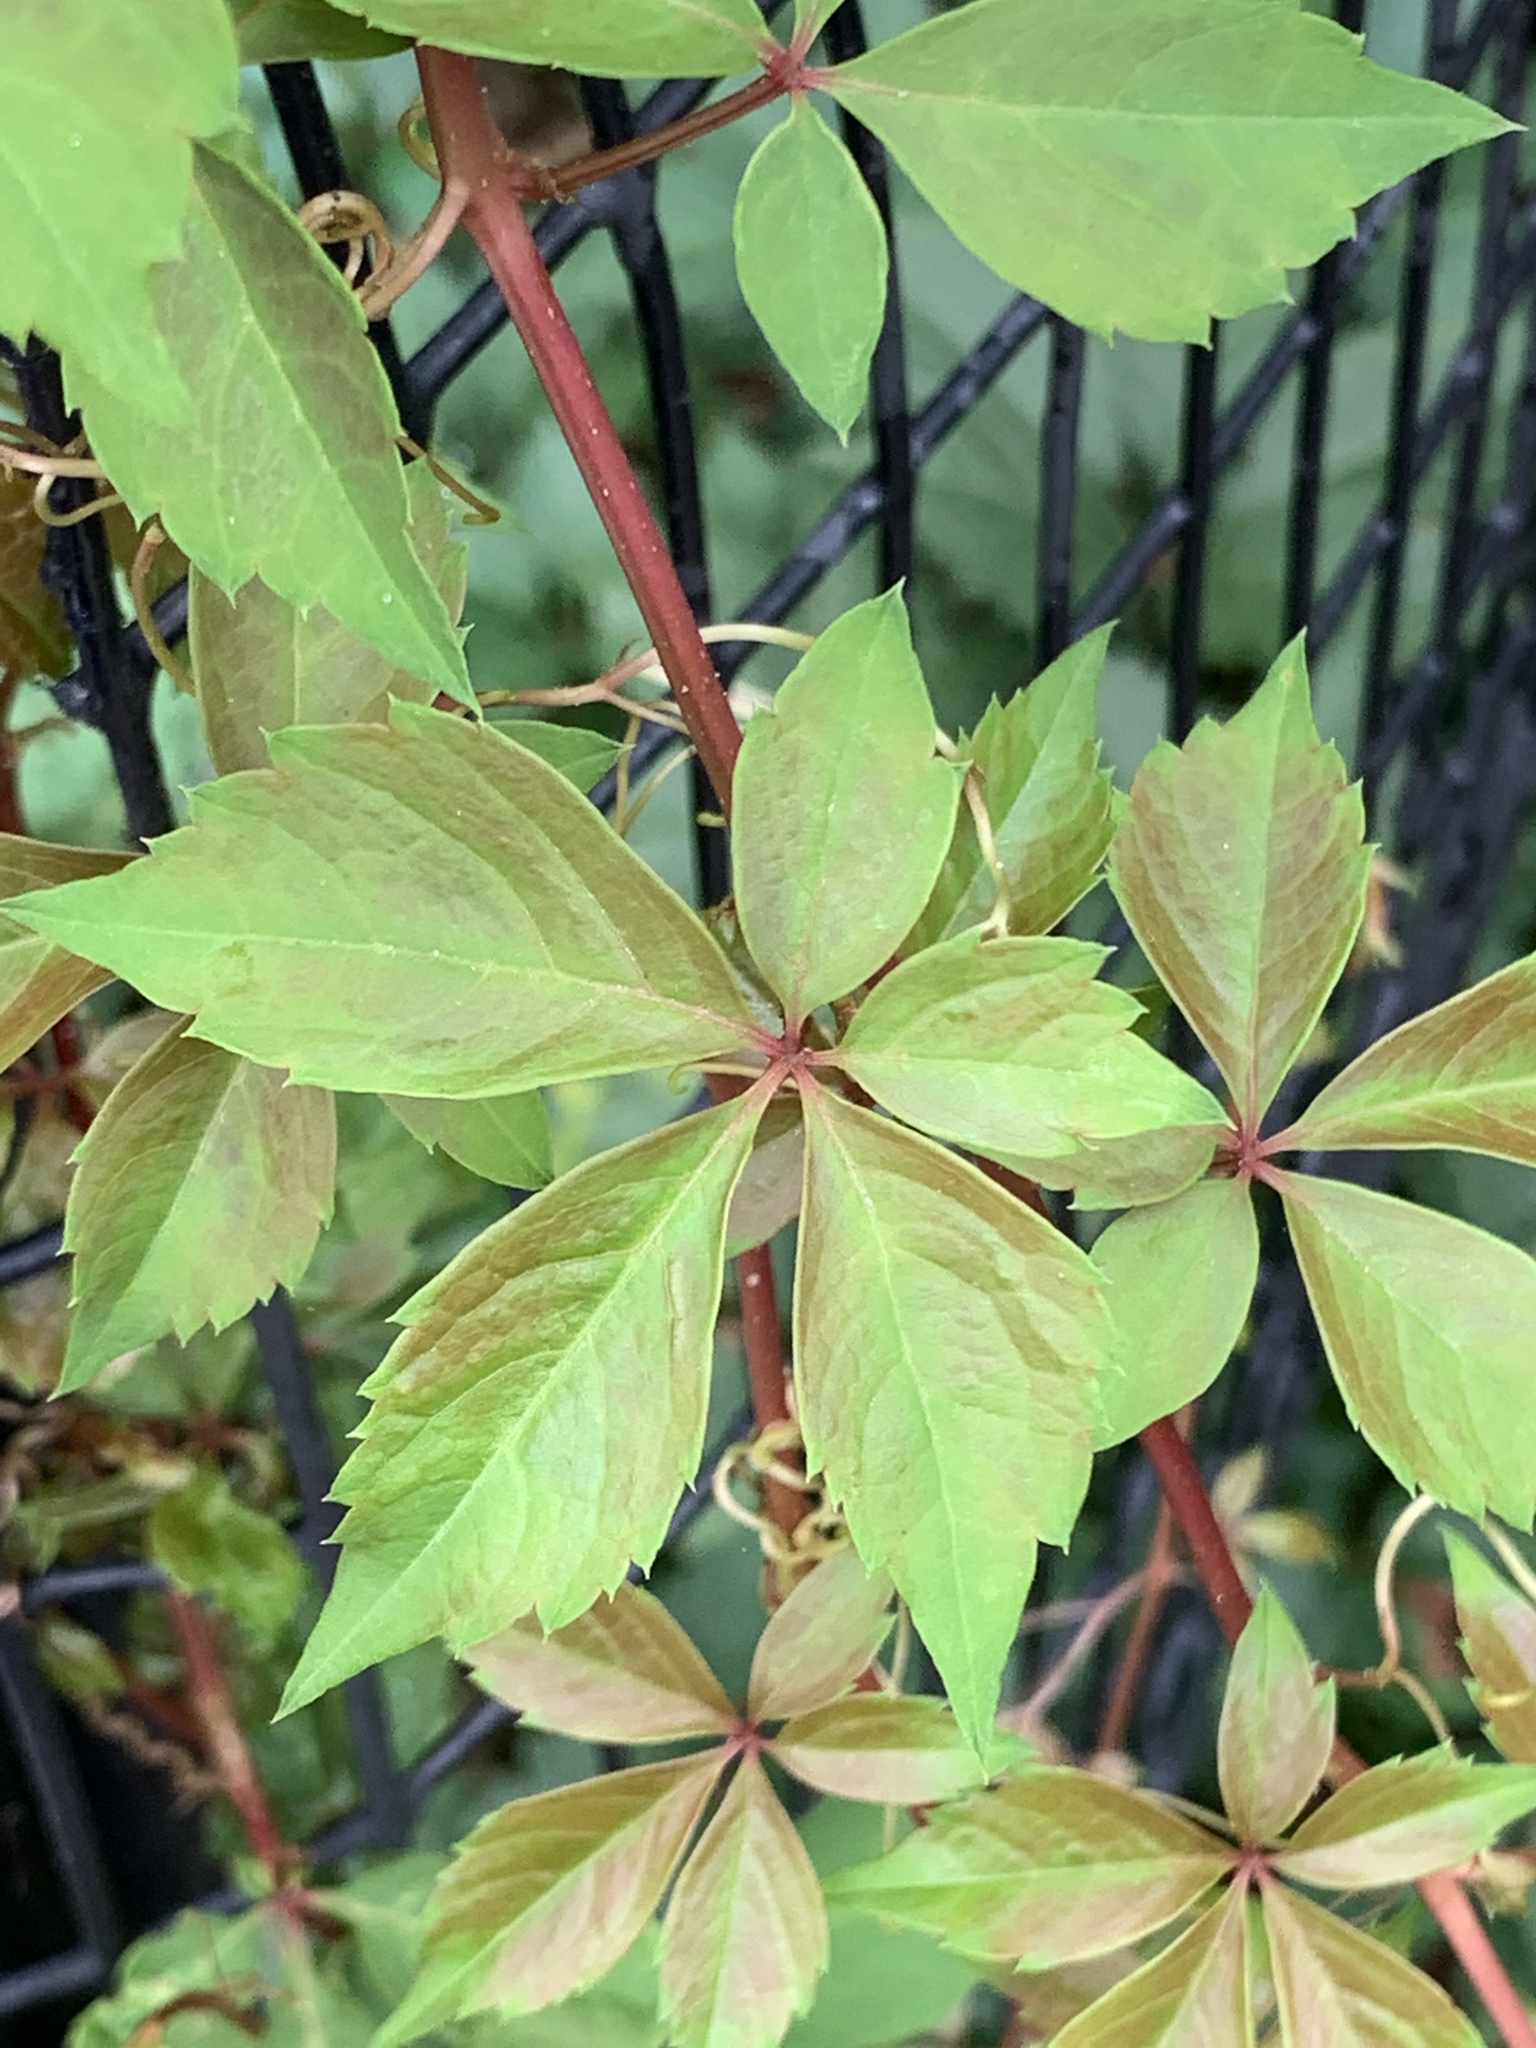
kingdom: Plantae
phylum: Tracheophyta
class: Magnoliopsida
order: Vitales
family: Vitaceae
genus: Parthenocissus
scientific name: Parthenocissus quinquefolia
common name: Virginia-creeper
